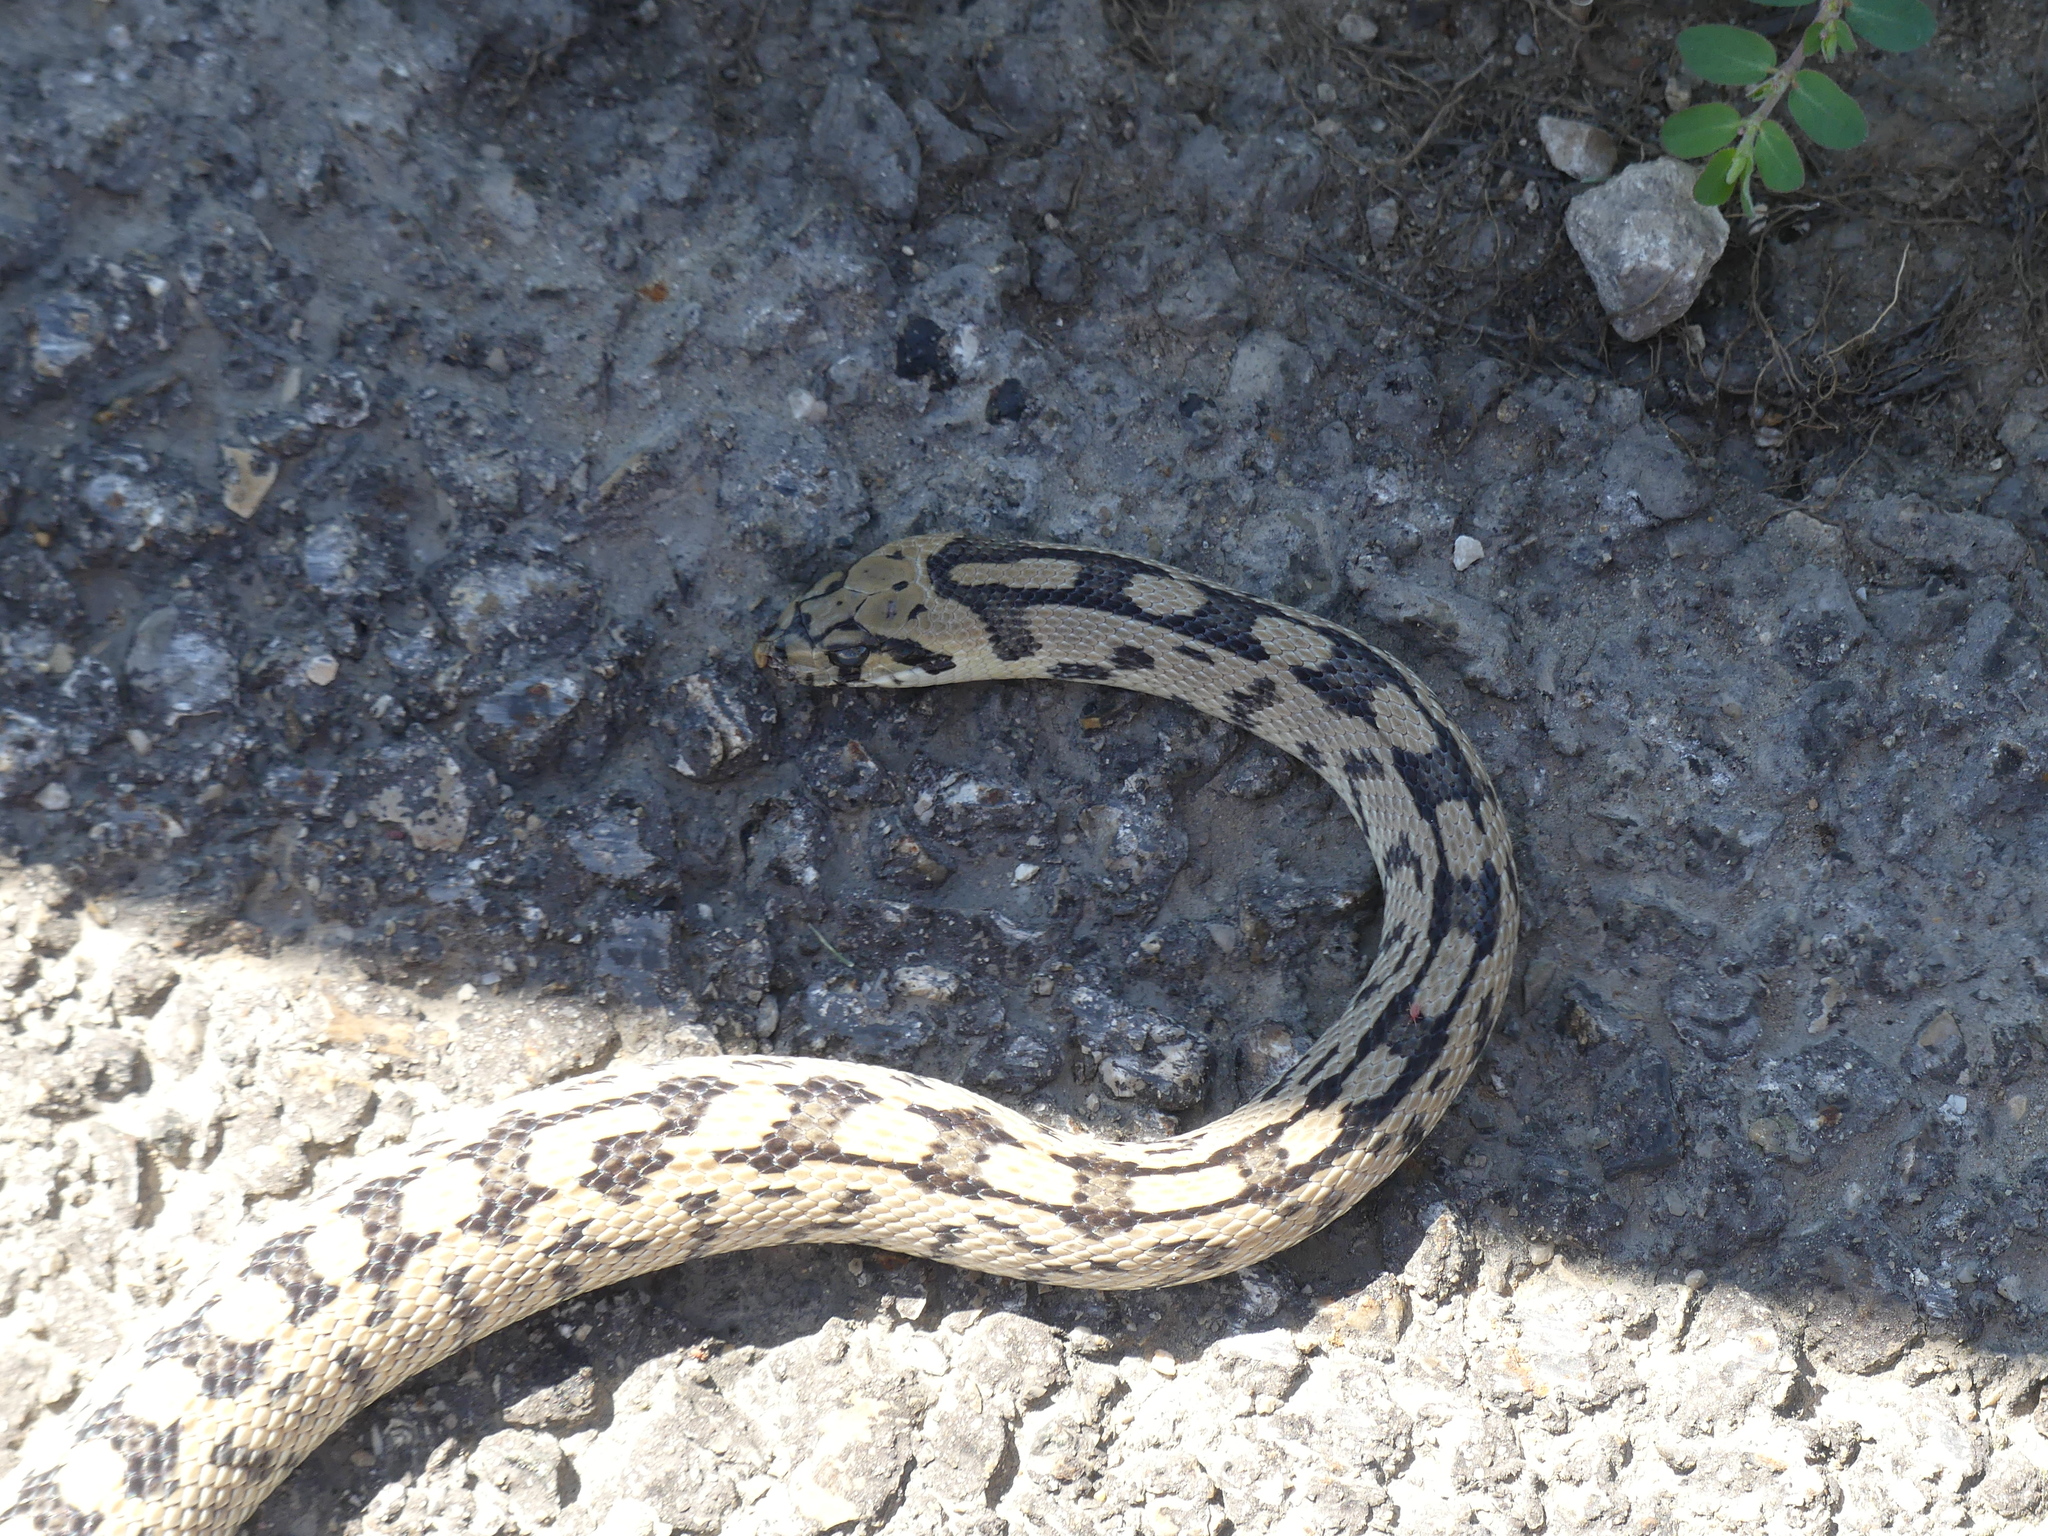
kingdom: Animalia
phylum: Chordata
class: Squamata
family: Colubridae
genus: Zamenis
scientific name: Zamenis scalaris
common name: Ladder snakes
